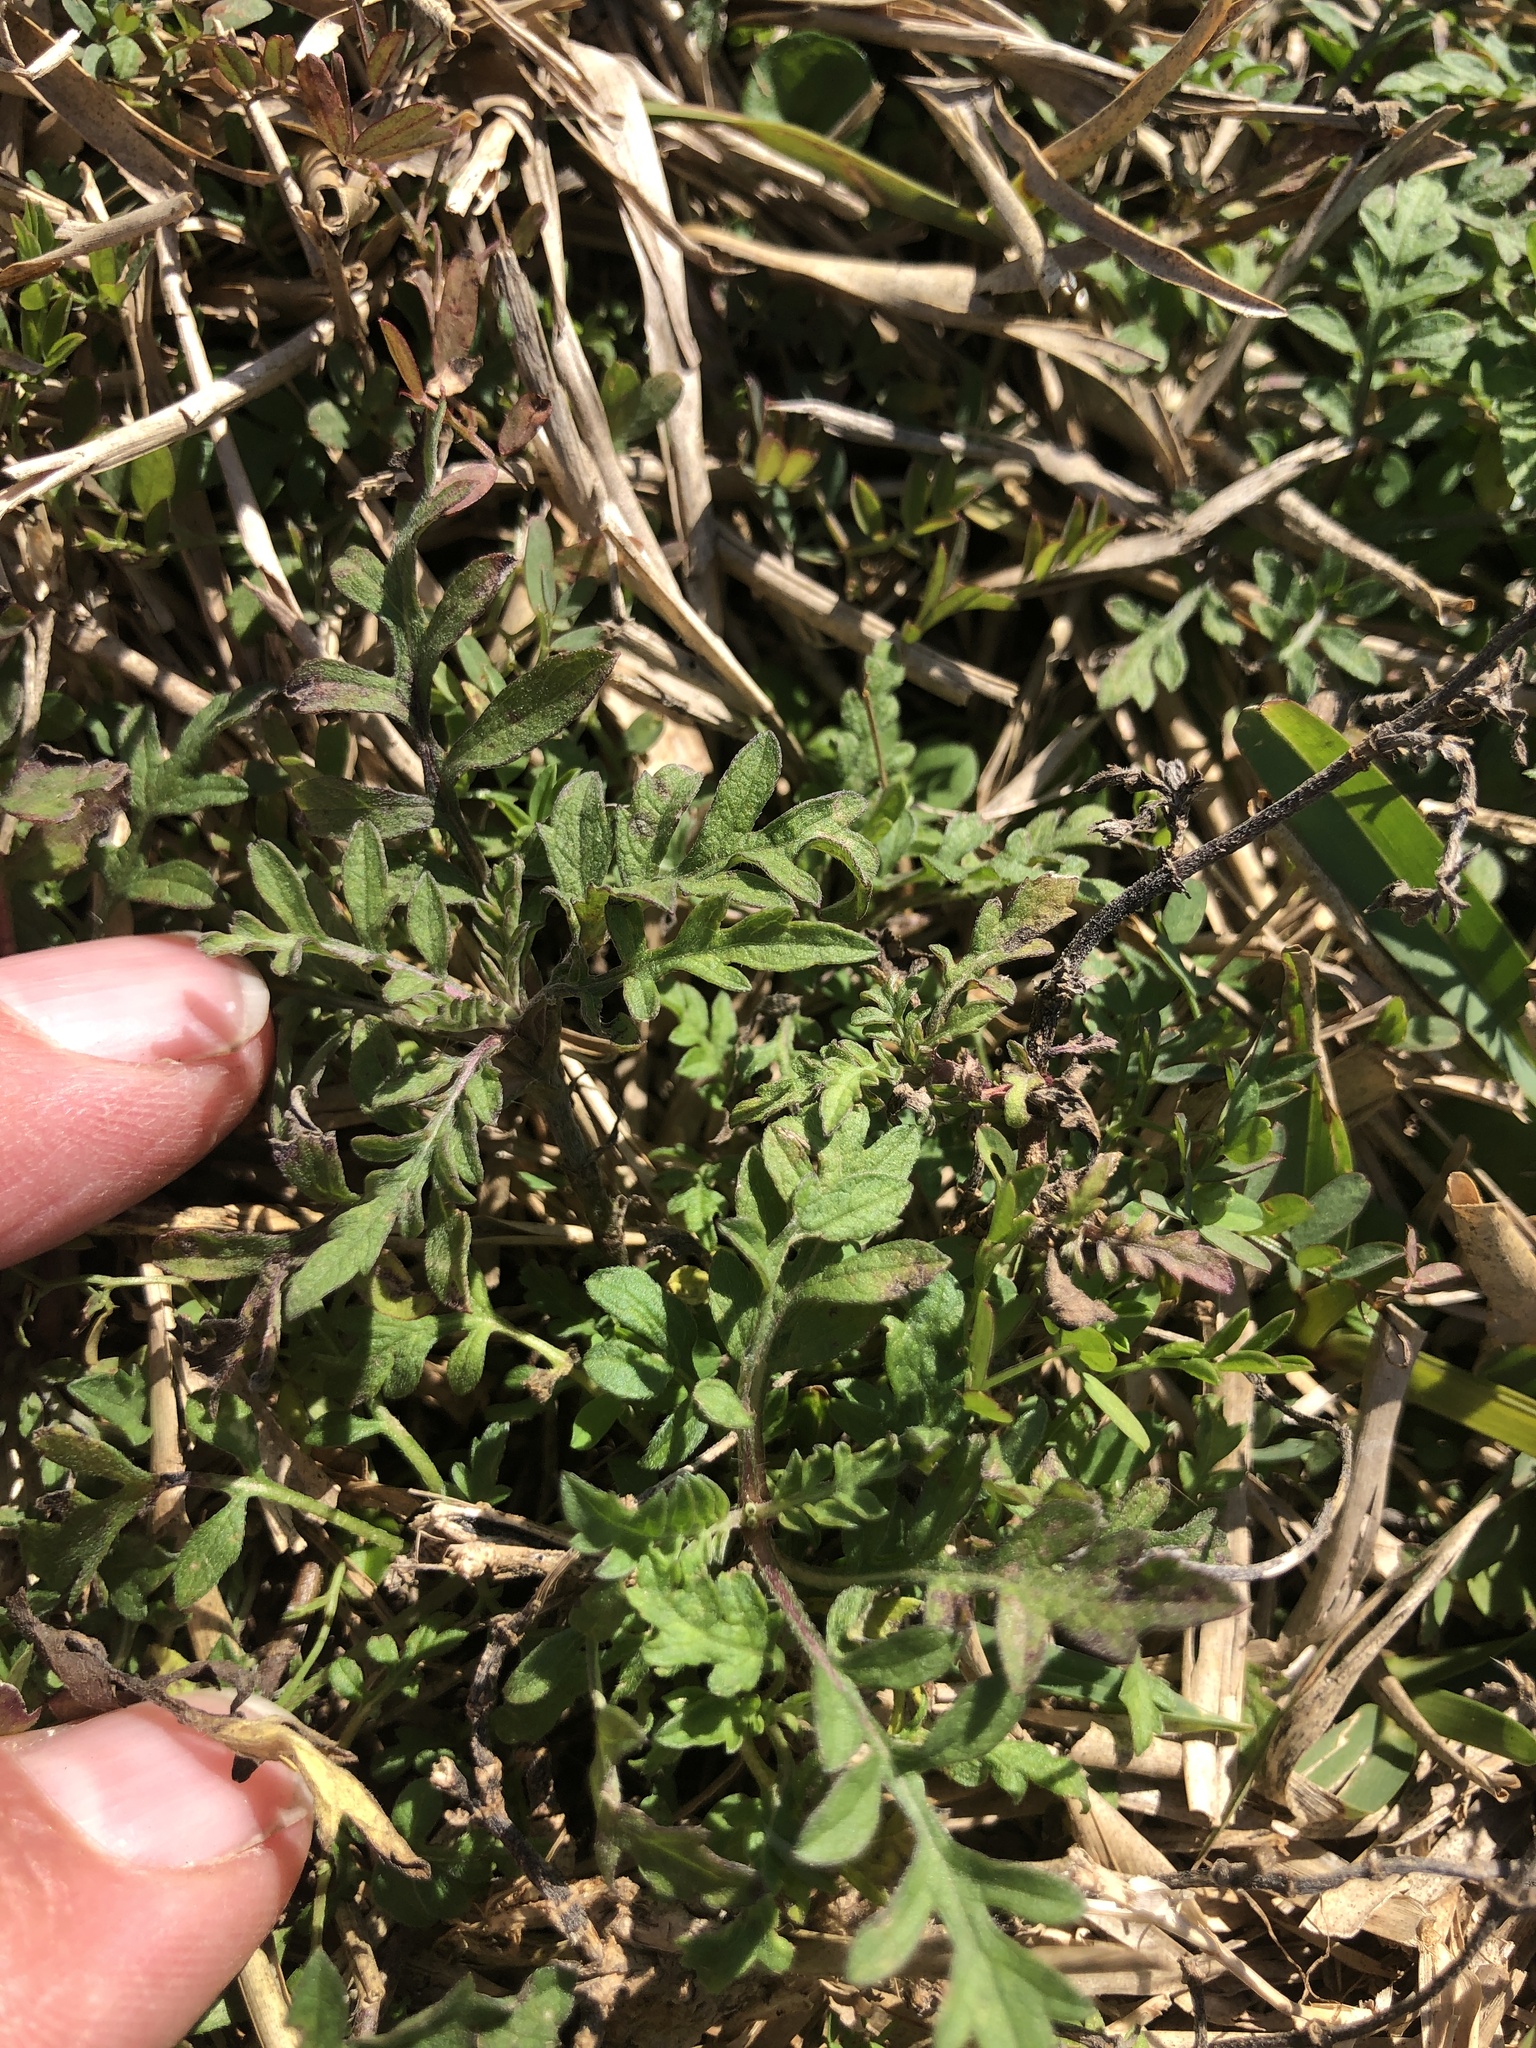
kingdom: Plantae
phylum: Tracheophyta
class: Magnoliopsida
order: Asterales
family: Asteraceae
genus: Ambrosia
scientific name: Ambrosia psilostachya
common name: Perennial ragweed
